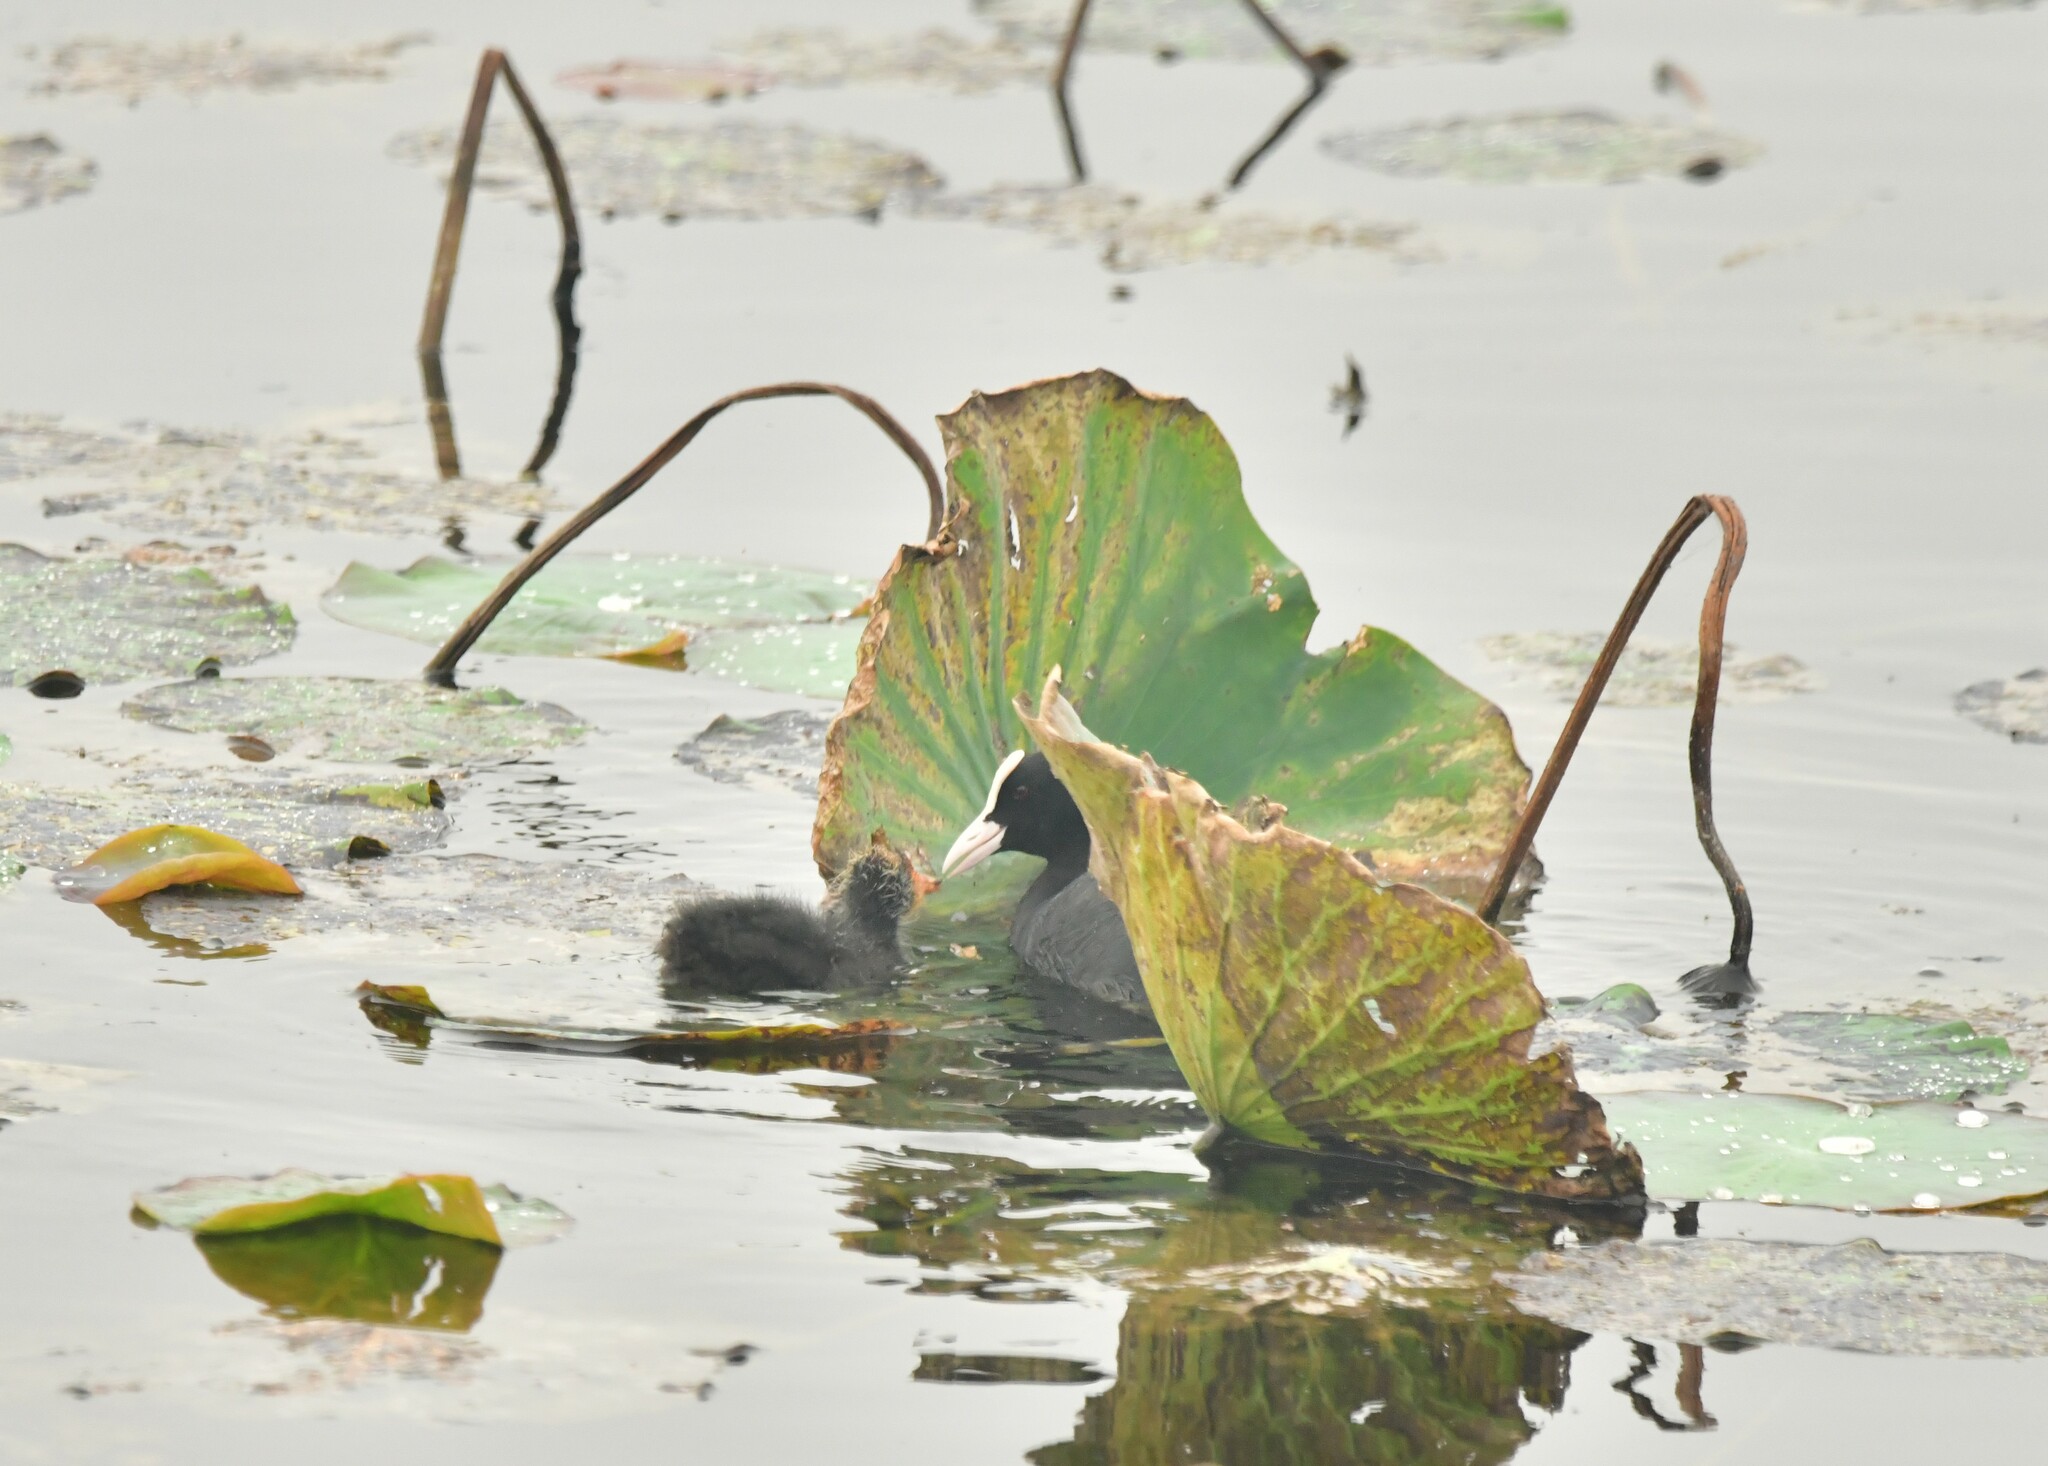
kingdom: Animalia
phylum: Chordata
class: Aves
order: Gruiformes
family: Rallidae
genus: Fulica
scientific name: Fulica atra
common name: Eurasian coot
